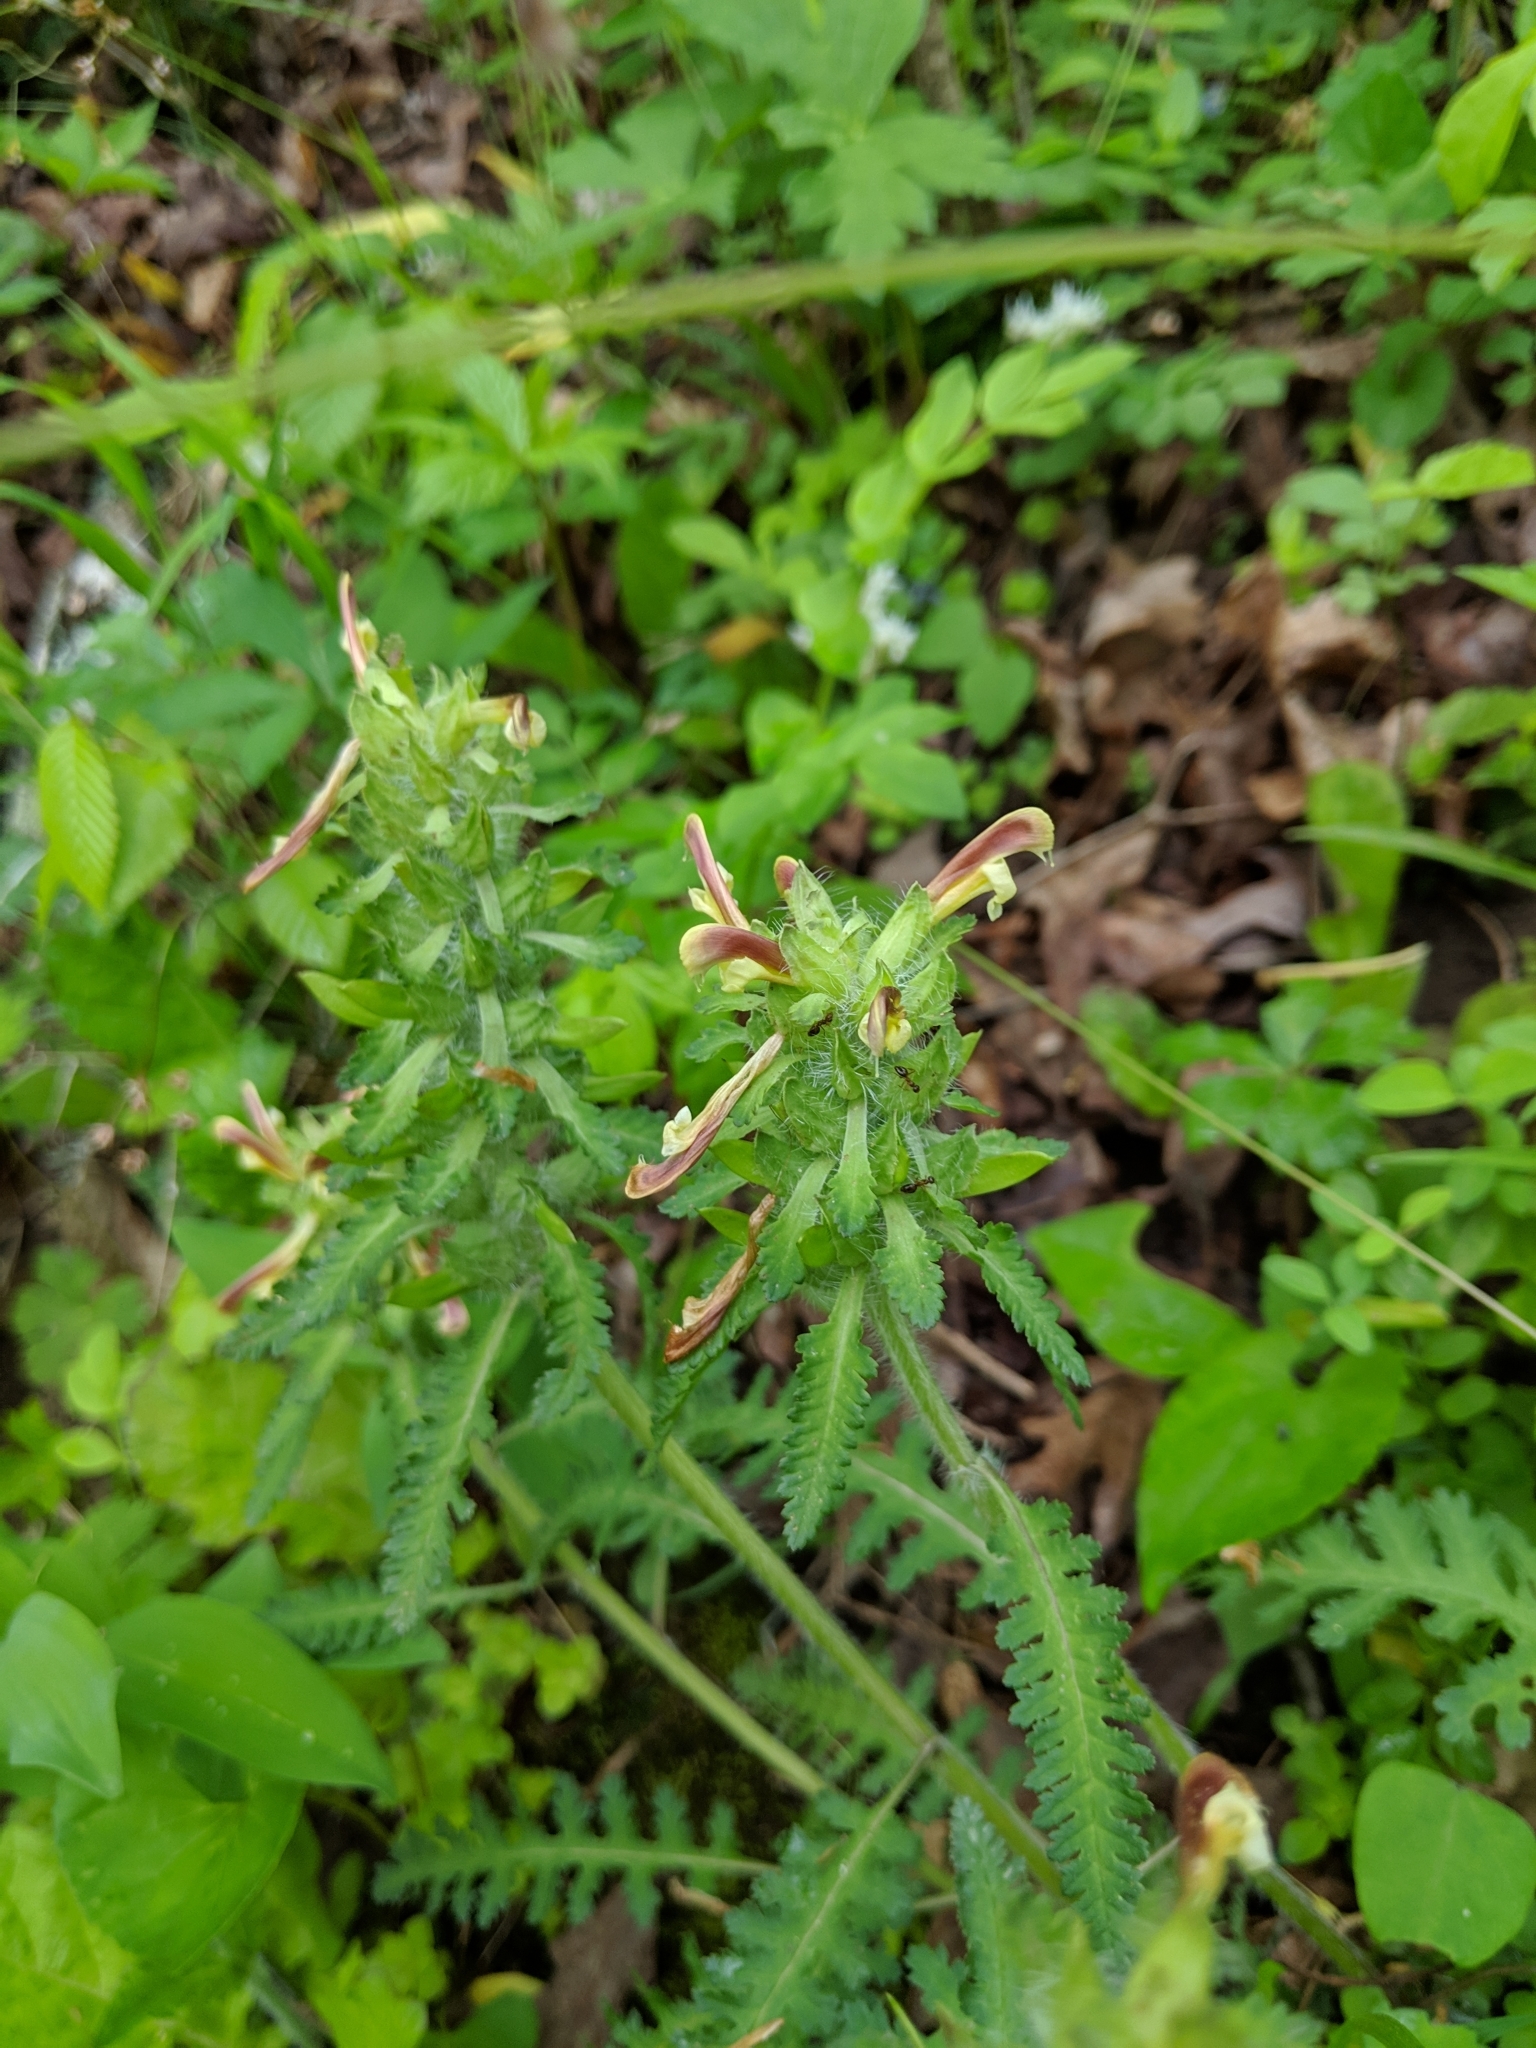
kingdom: Plantae
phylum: Tracheophyta
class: Magnoliopsida
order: Lamiales
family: Orobanchaceae
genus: Pedicularis
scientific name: Pedicularis canadensis
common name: Early lousewort
